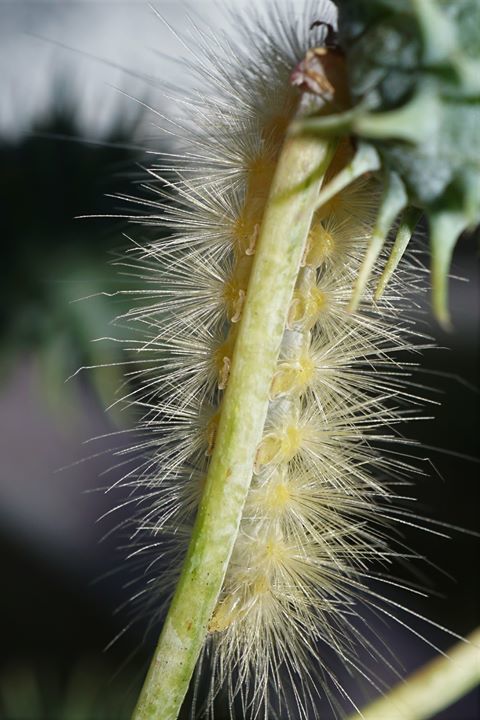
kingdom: Animalia
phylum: Arthropoda
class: Insecta
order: Lepidoptera
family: Erebidae
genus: Spilosoma
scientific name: Spilosoma virginica
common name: Virginia tiger moth
